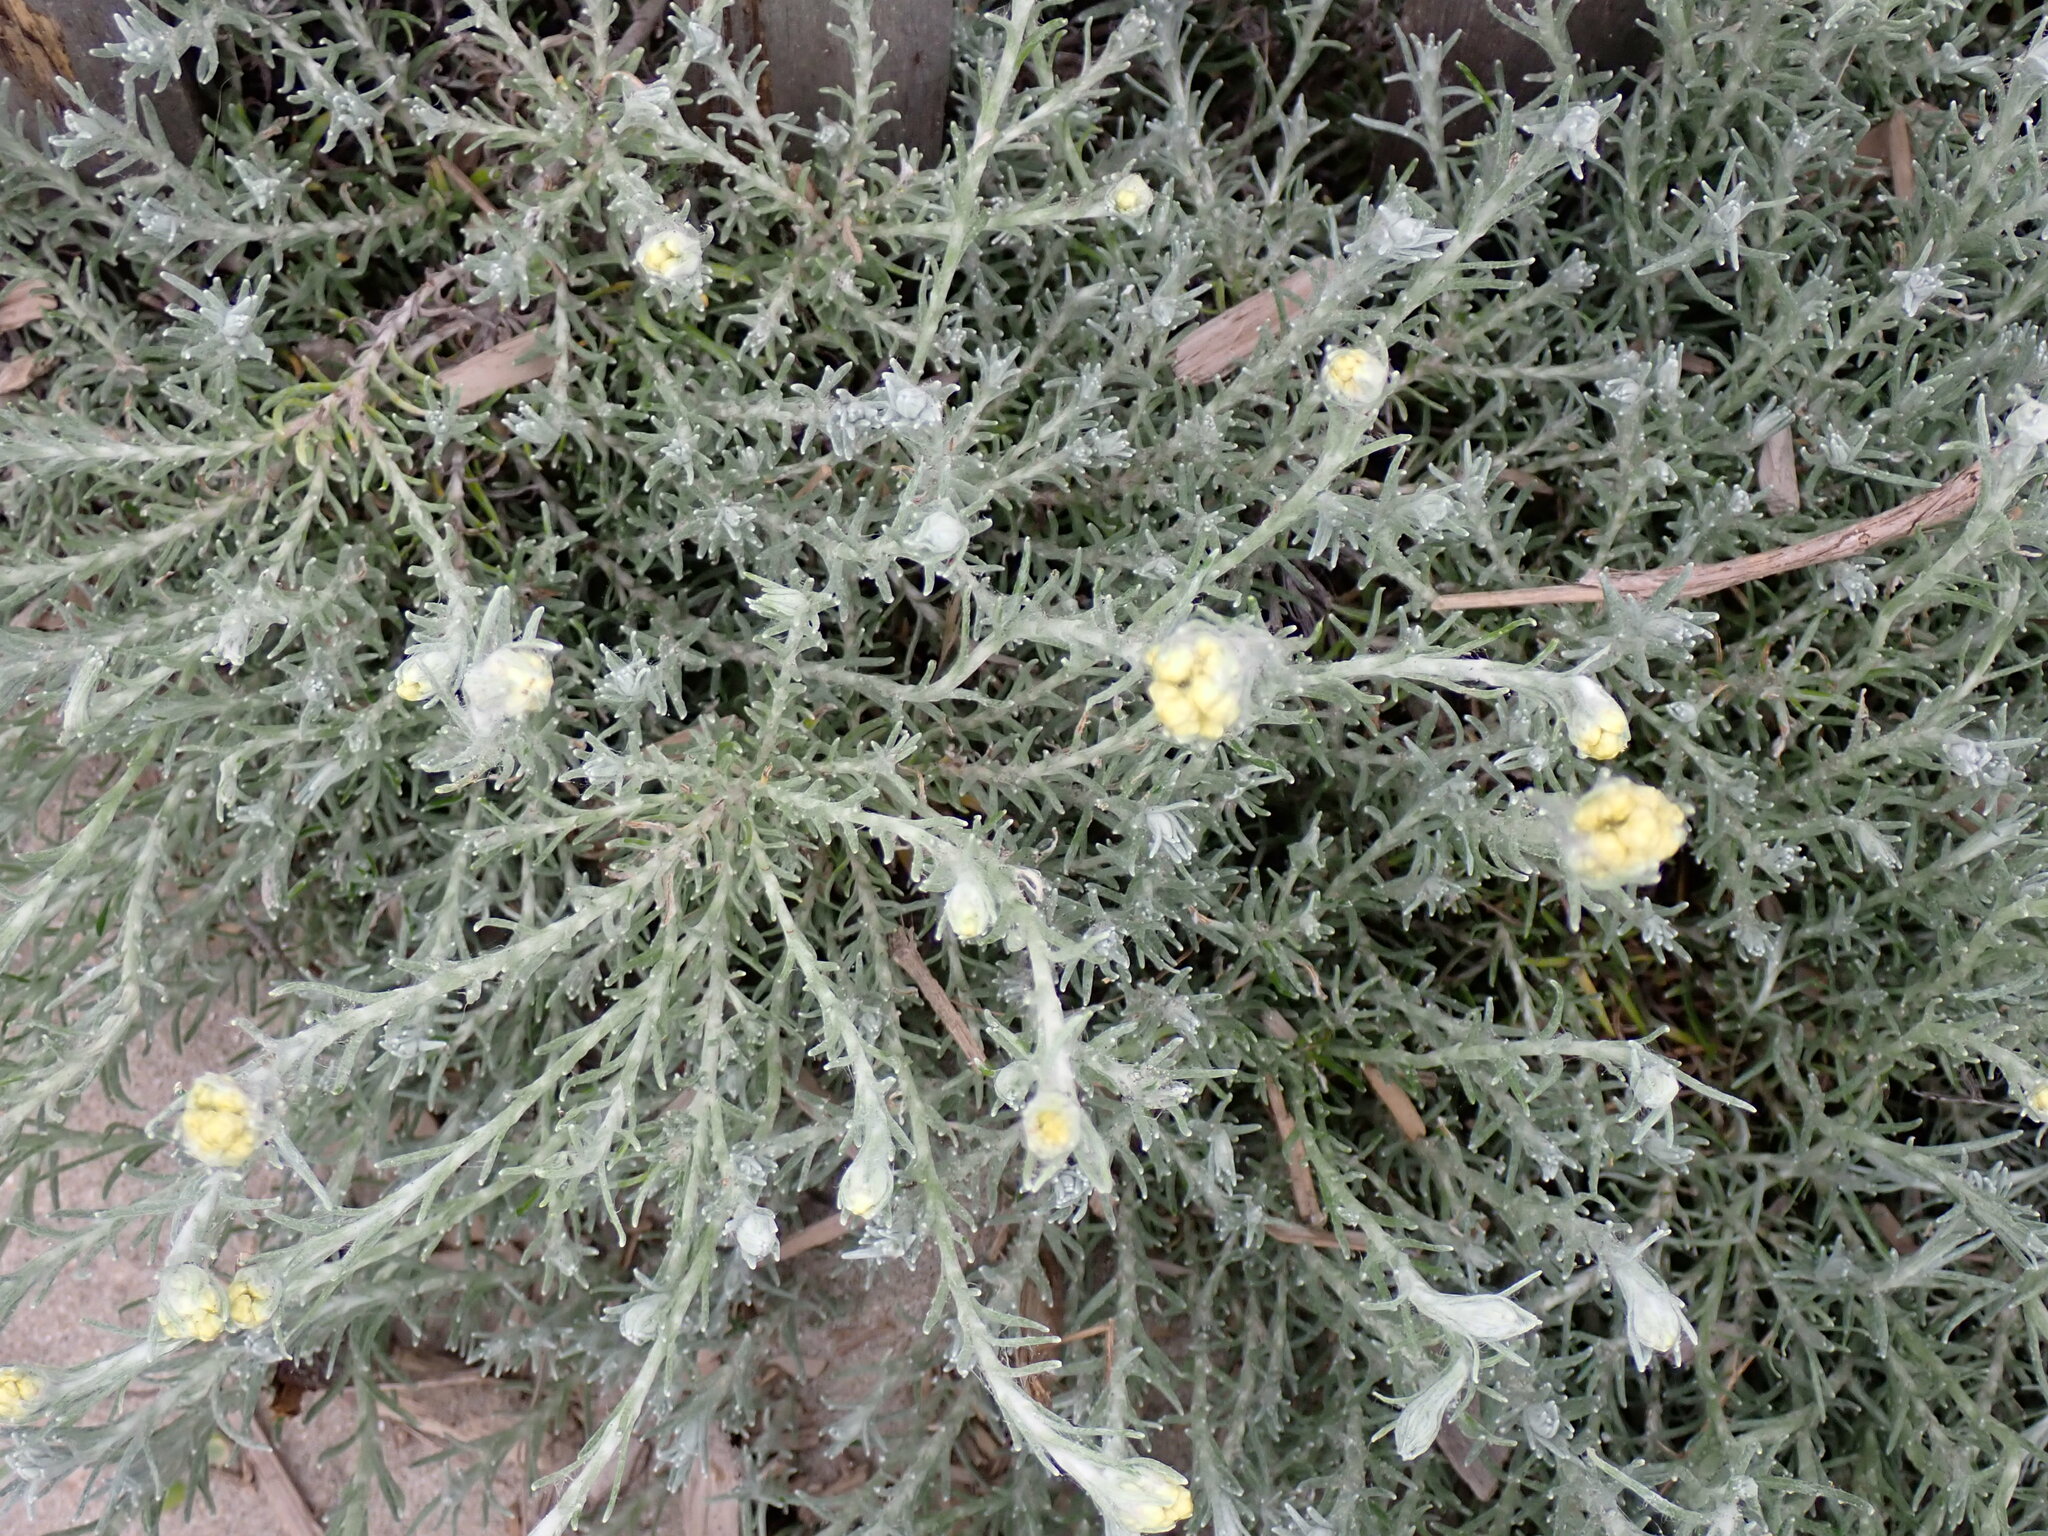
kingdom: Plantae
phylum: Tracheophyta
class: Magnoliopsida
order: Asterales
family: Asteraceae
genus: Helichrysum
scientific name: Helichrysum stoechas
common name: Goldilocks
